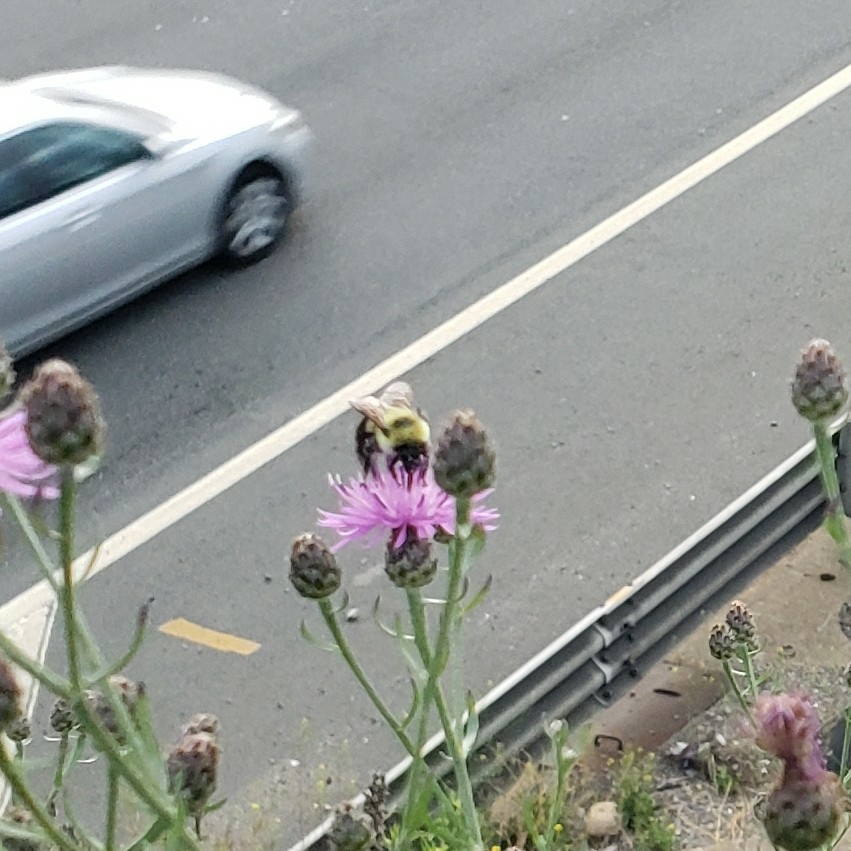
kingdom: Animalia
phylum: Arthropoda
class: Insecta
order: Hymenoptera
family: Apidae
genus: Bombus
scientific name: Bombus impatiens
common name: Common eastern bumble bee
